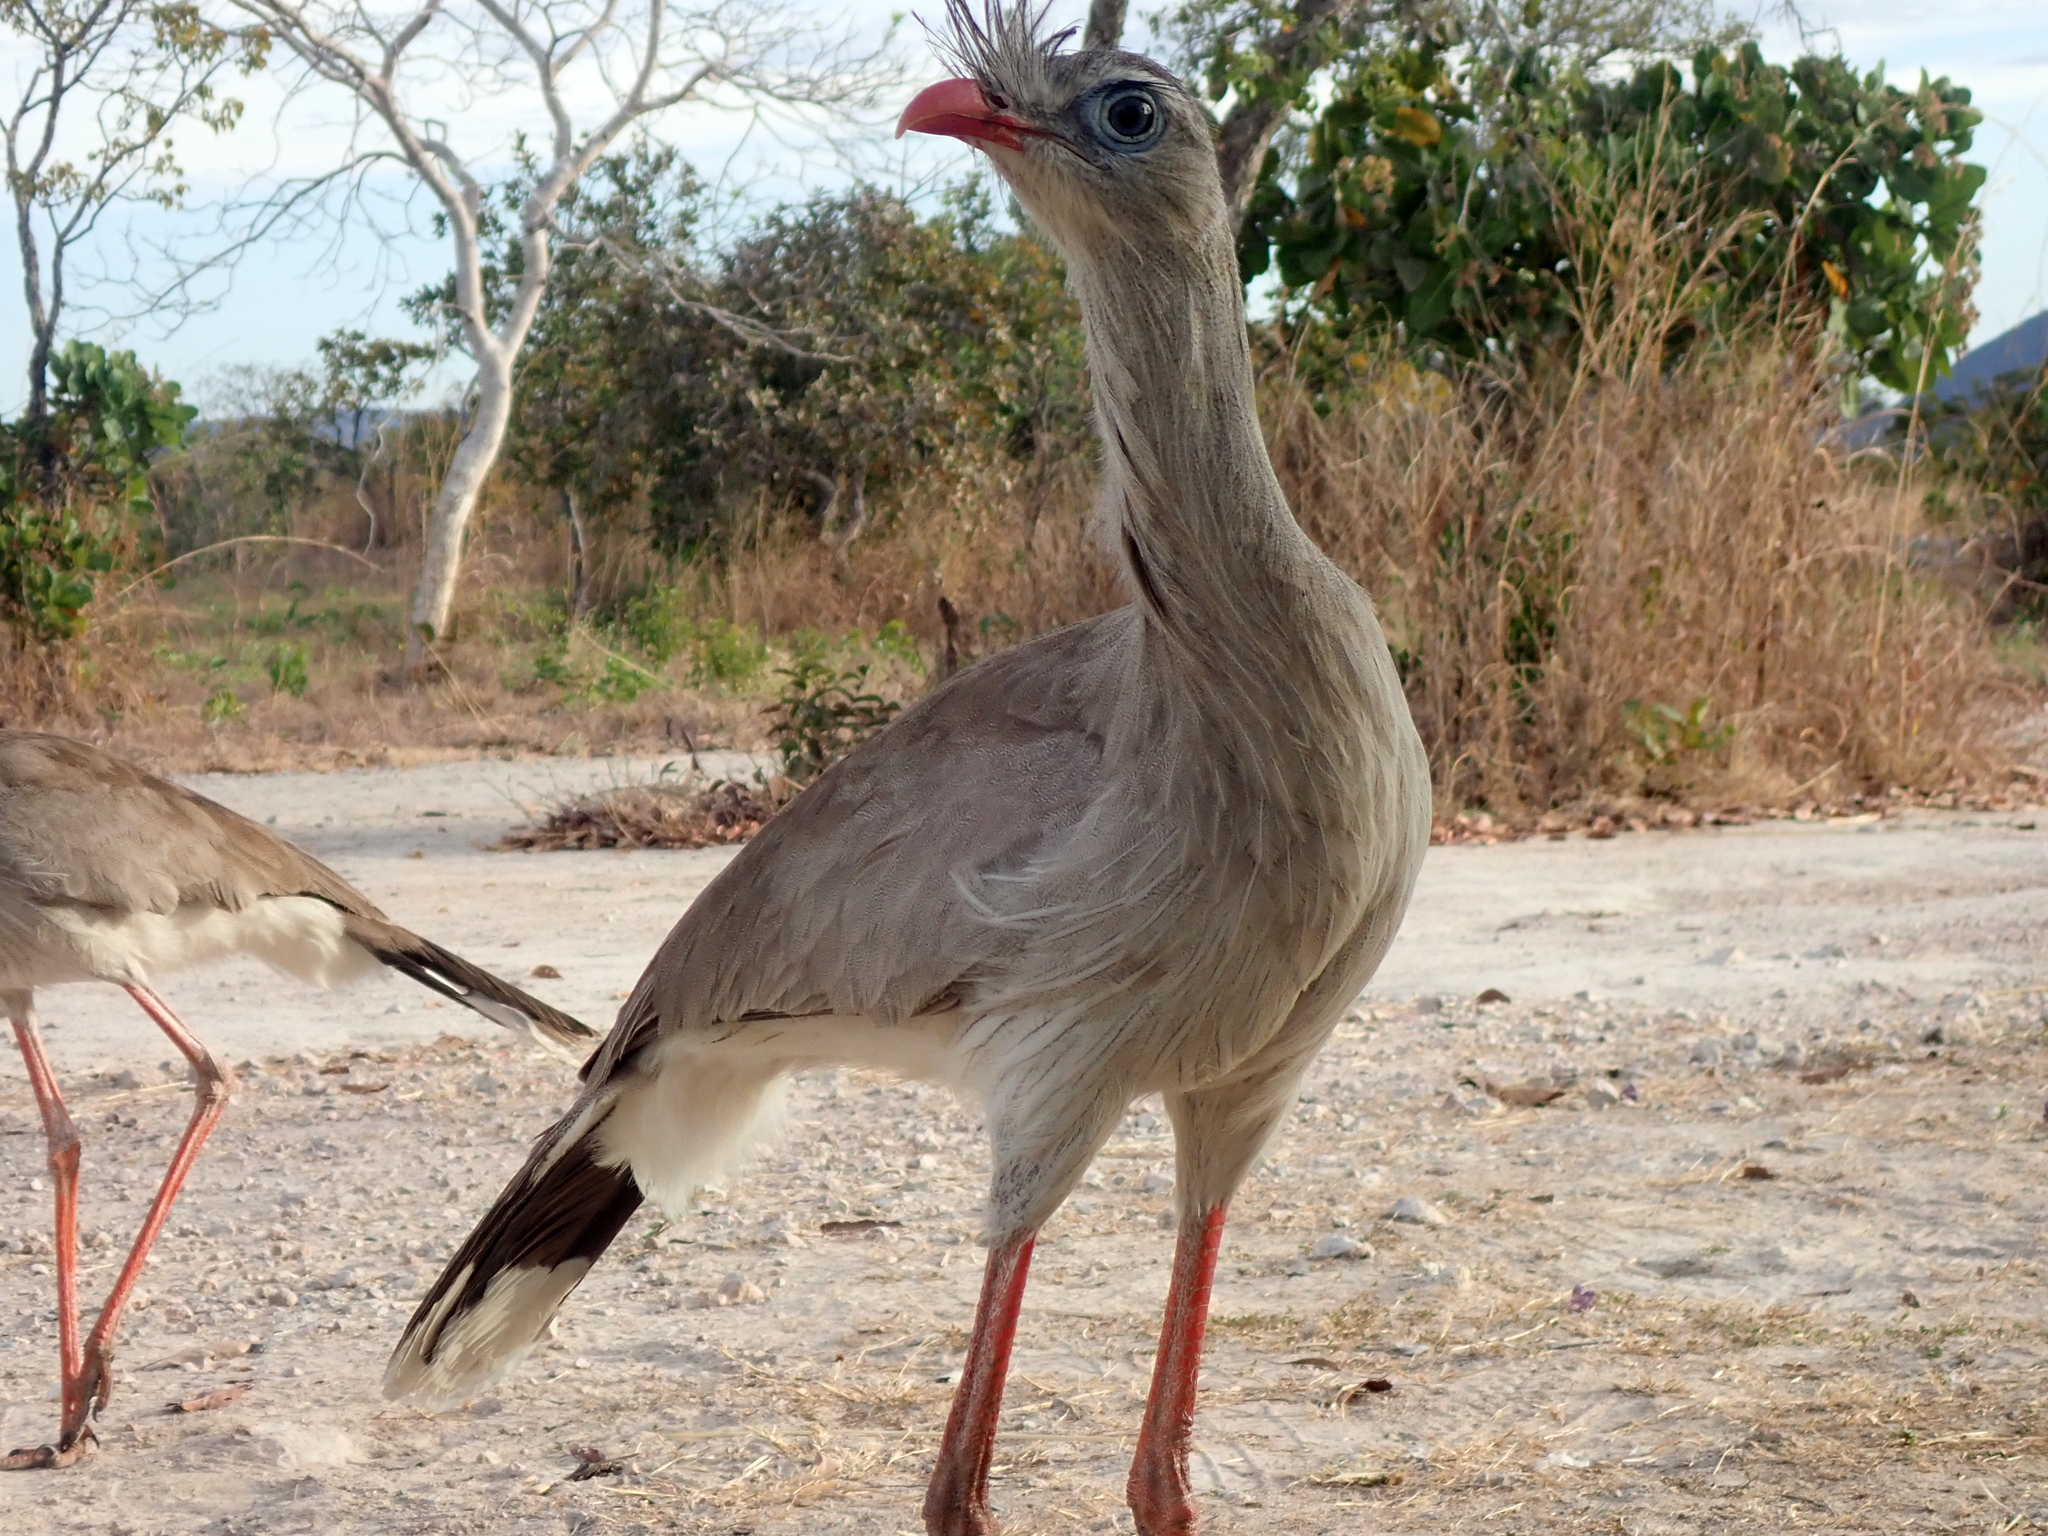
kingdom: Animalia
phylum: Chordata
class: Aves
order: Cariamiformes
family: Cariamidae
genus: Cariama
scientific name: Cariama cristata
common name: Red-legged seriema
